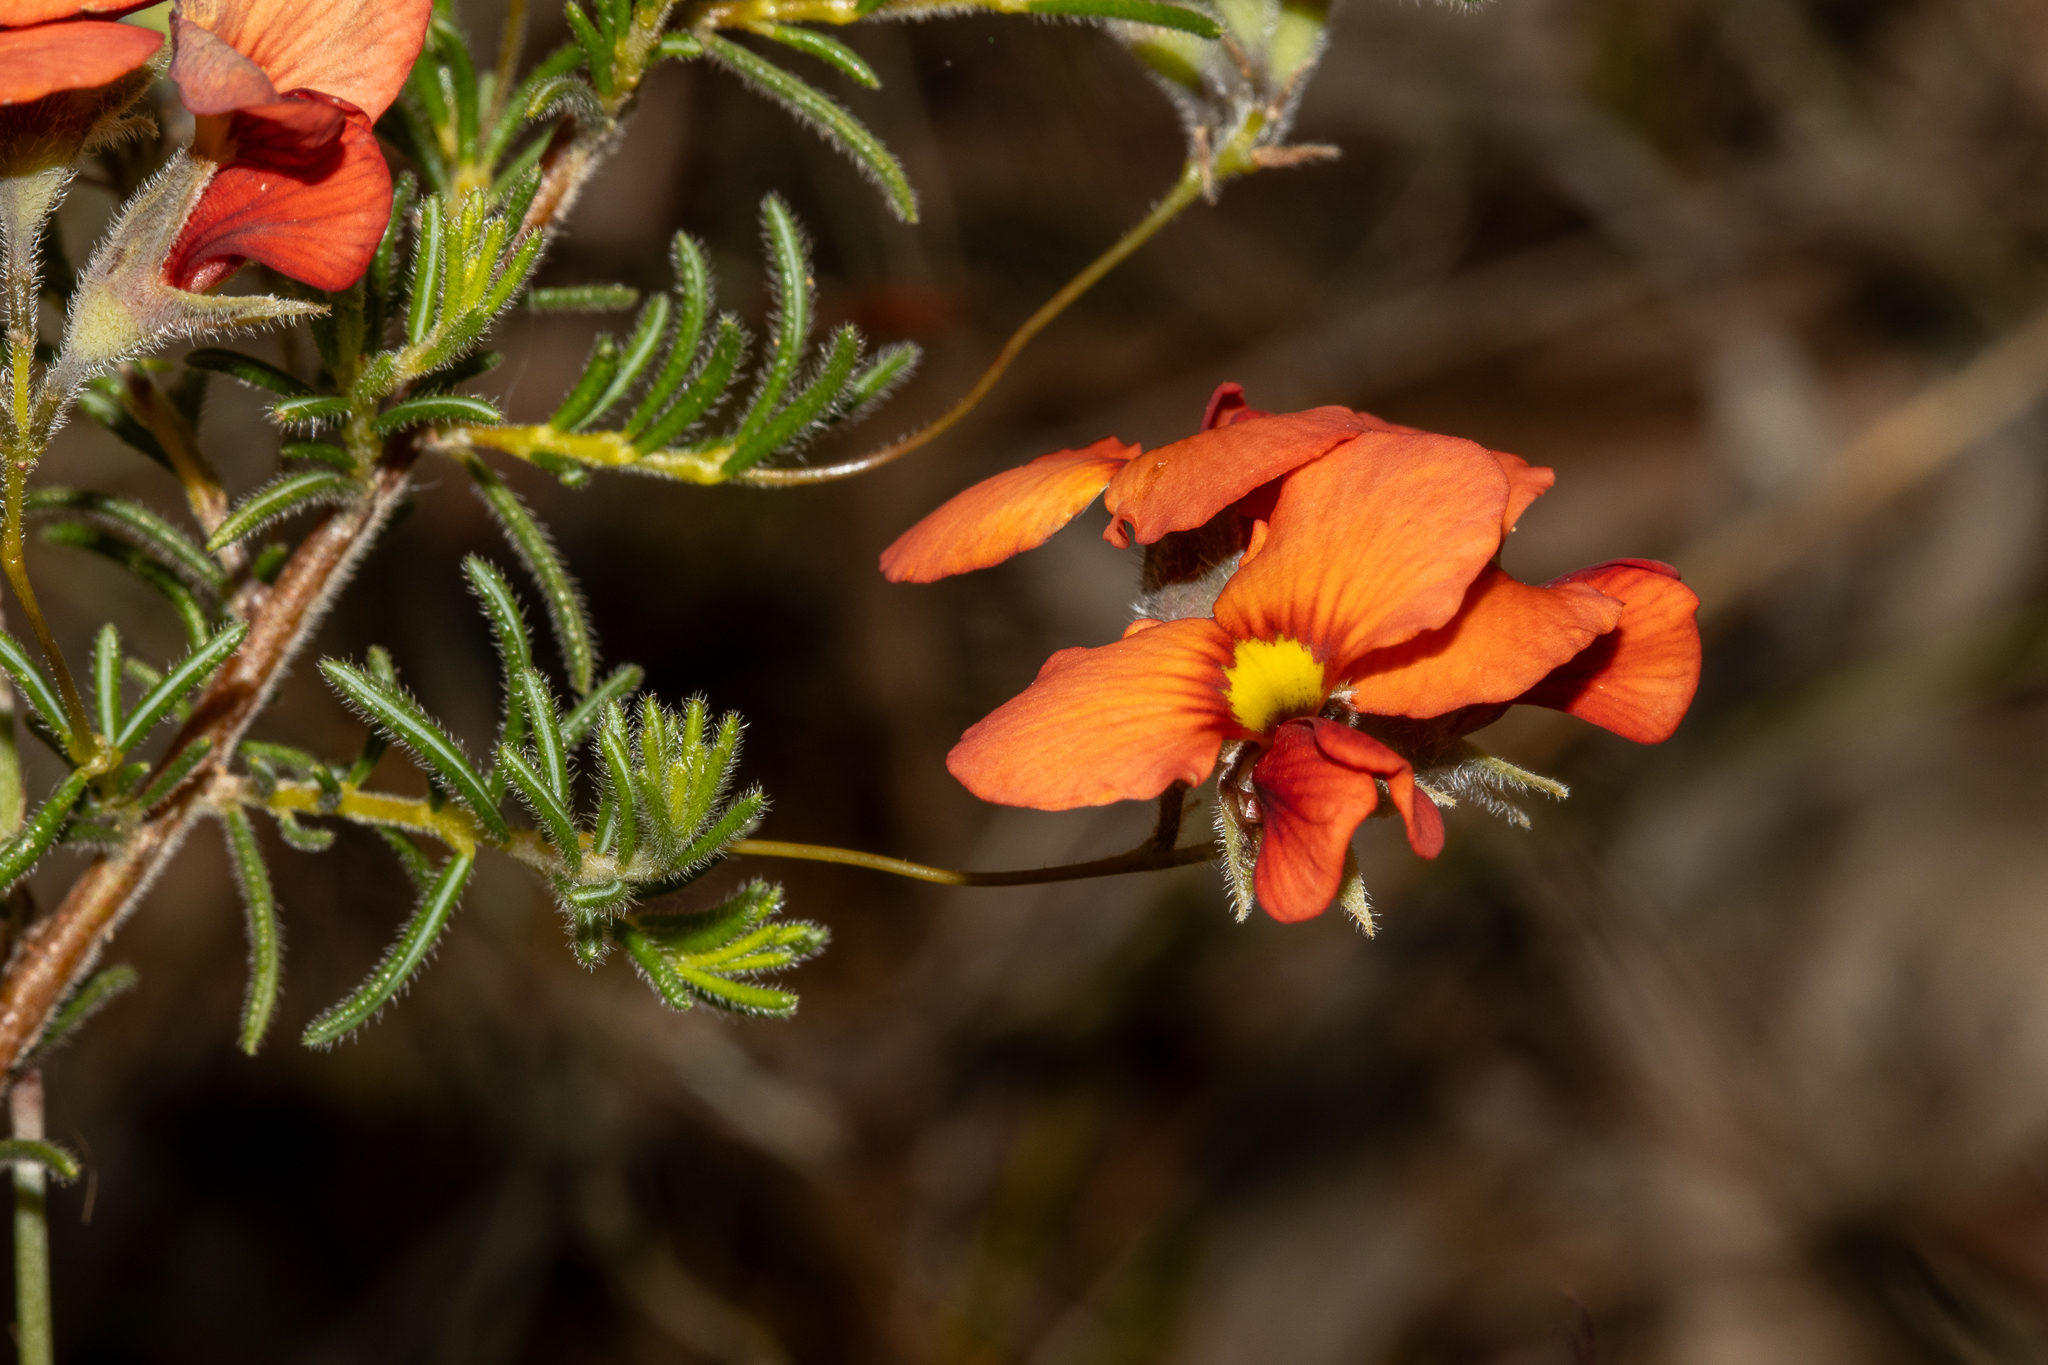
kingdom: Plantae
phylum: Tracheophyta
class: Magnoliopsida
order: Fabales
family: Fabaceae
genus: Dillwynia
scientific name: Dillwynia hispida
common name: Red parrot-pea
